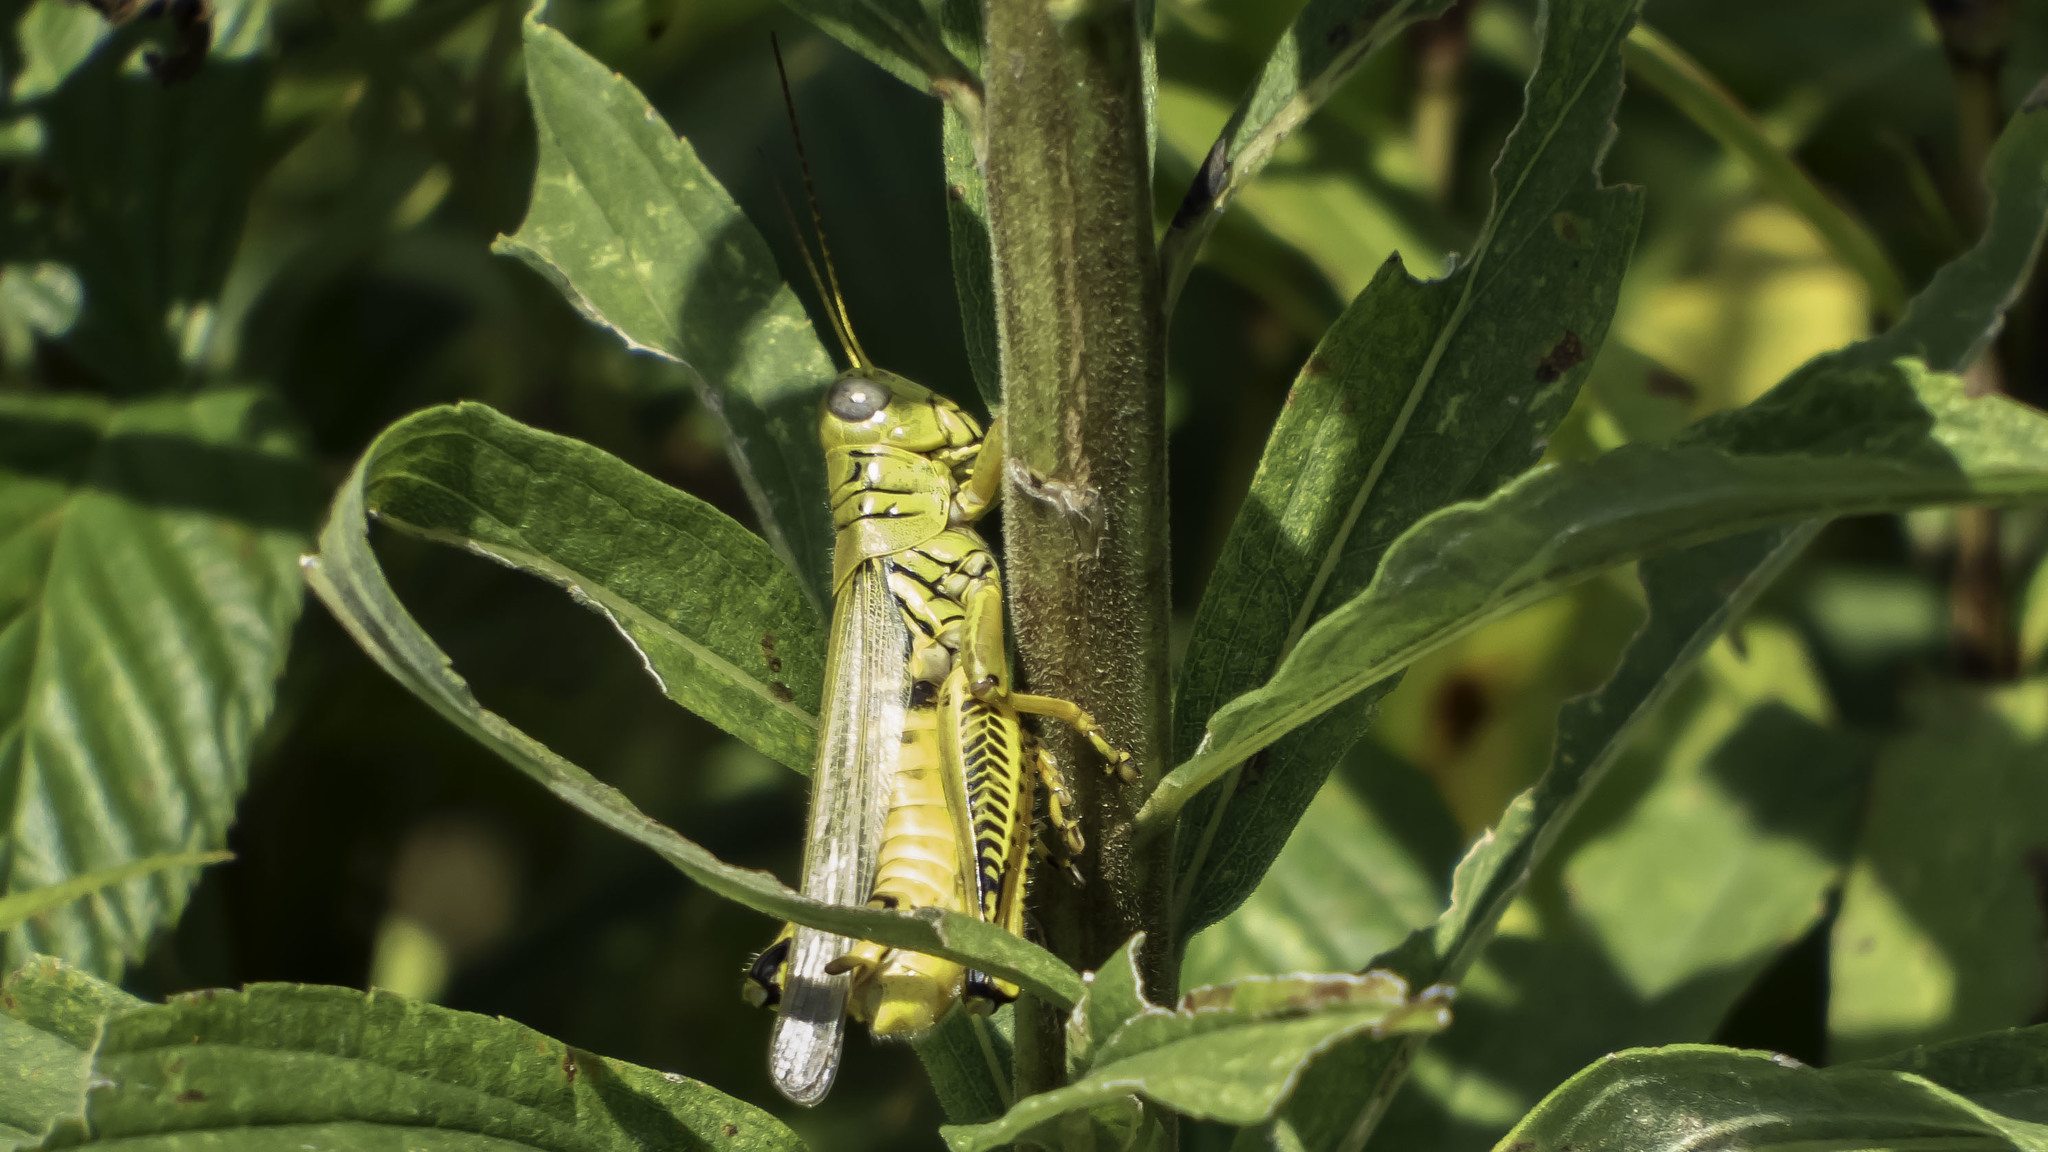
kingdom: Animalia
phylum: Arthropoda
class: Insecta
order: Orthoptera
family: Acrididae
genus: Melanoplus
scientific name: Melanoplus differentialis
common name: Differential grasshopper
